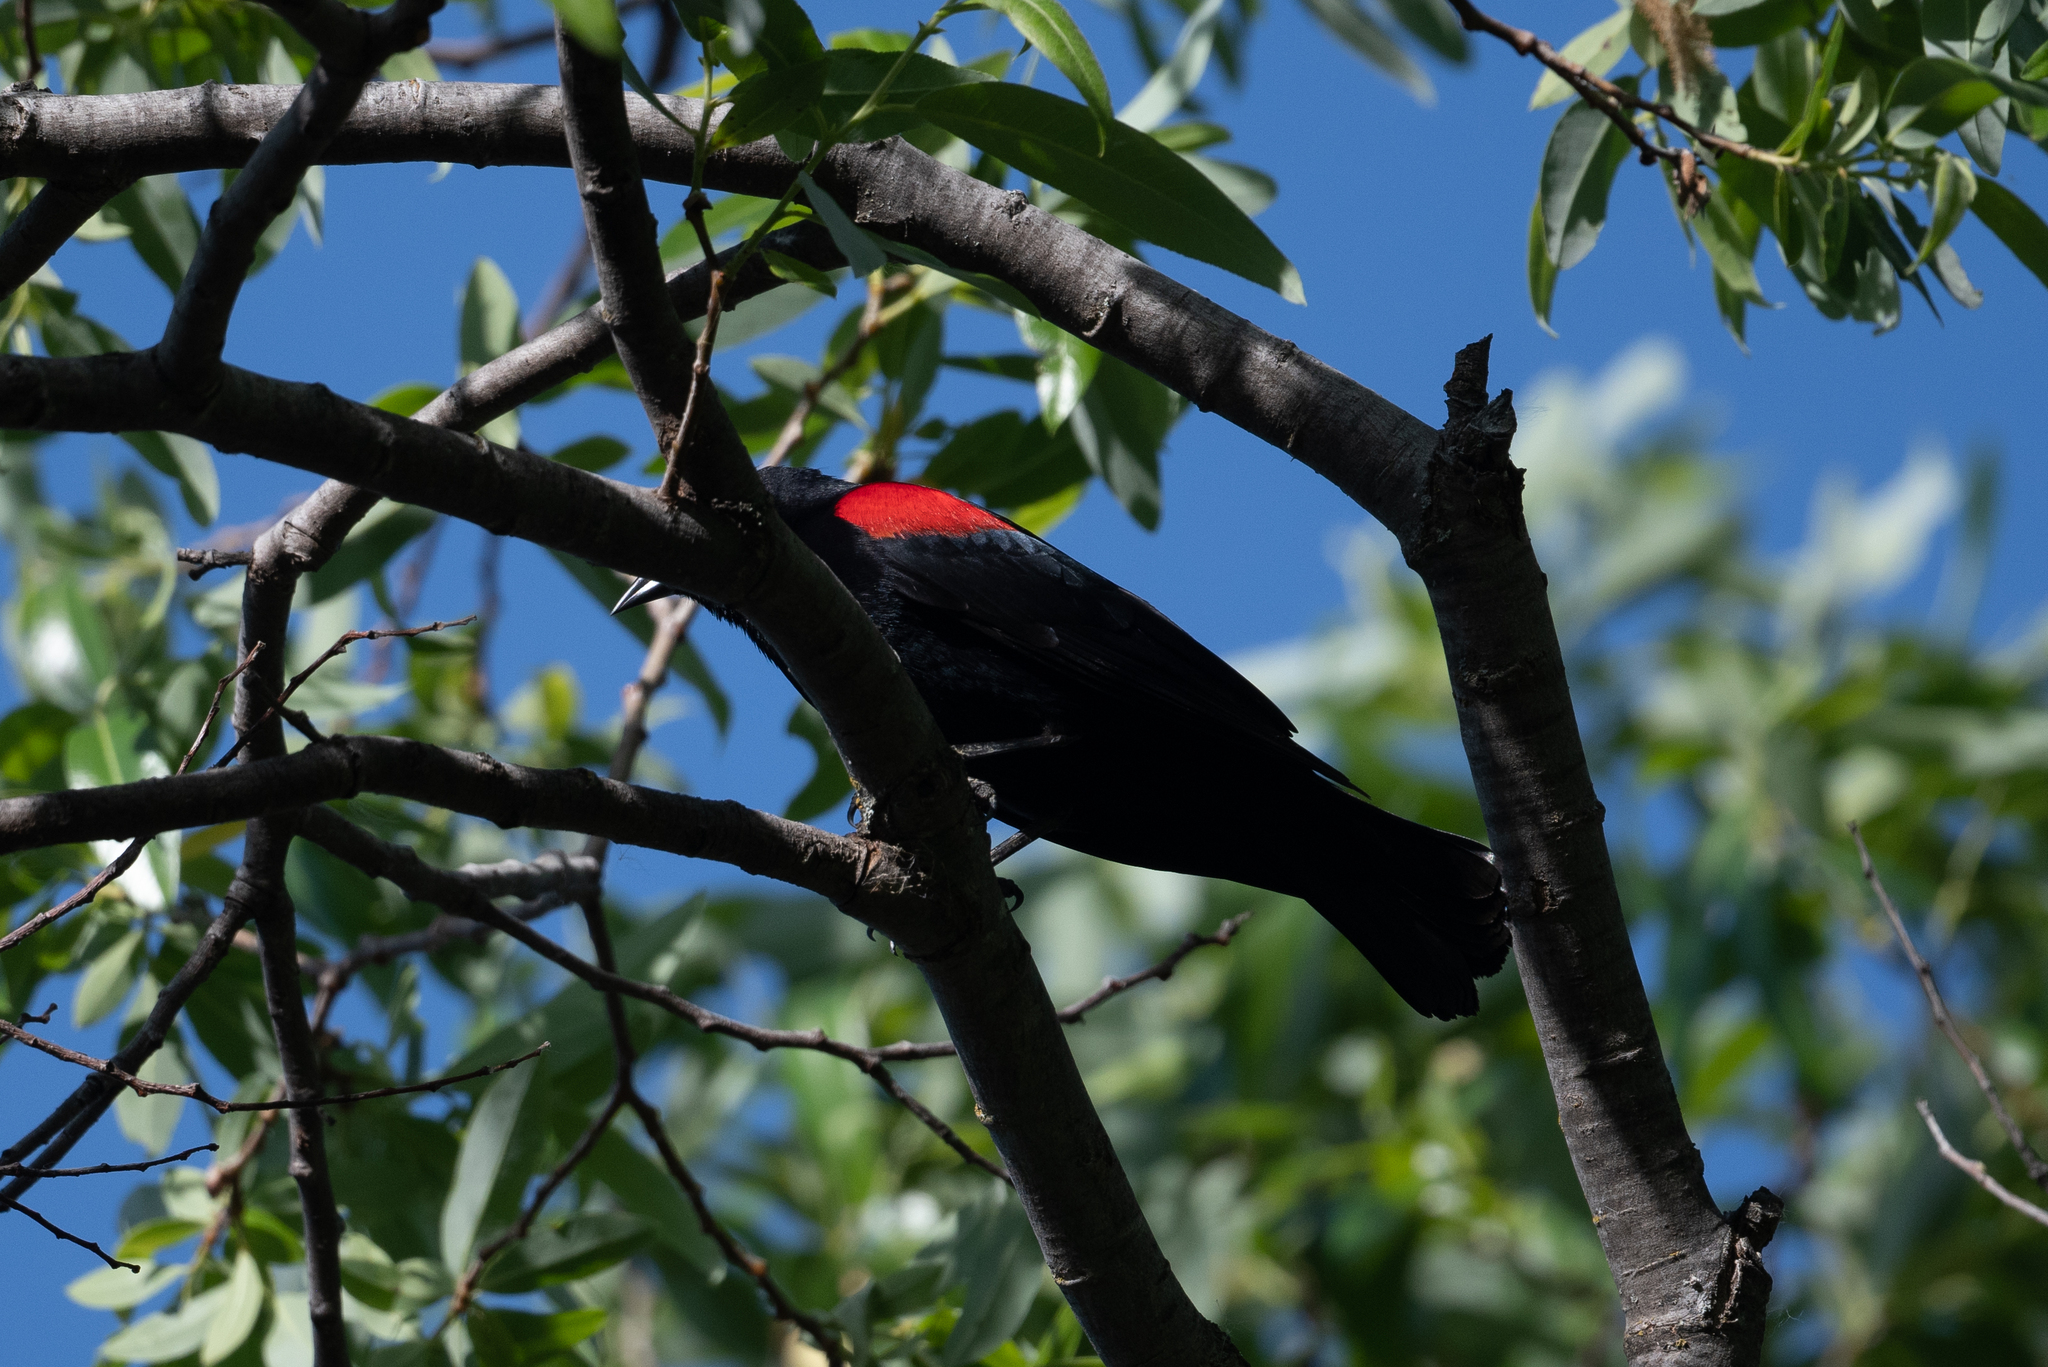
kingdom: Animalia
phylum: Chordata
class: Aves
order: Passeriformes
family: Icteridae
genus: Agelaius
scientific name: Agelaius phoeniceus
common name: Red-winged blackbird
